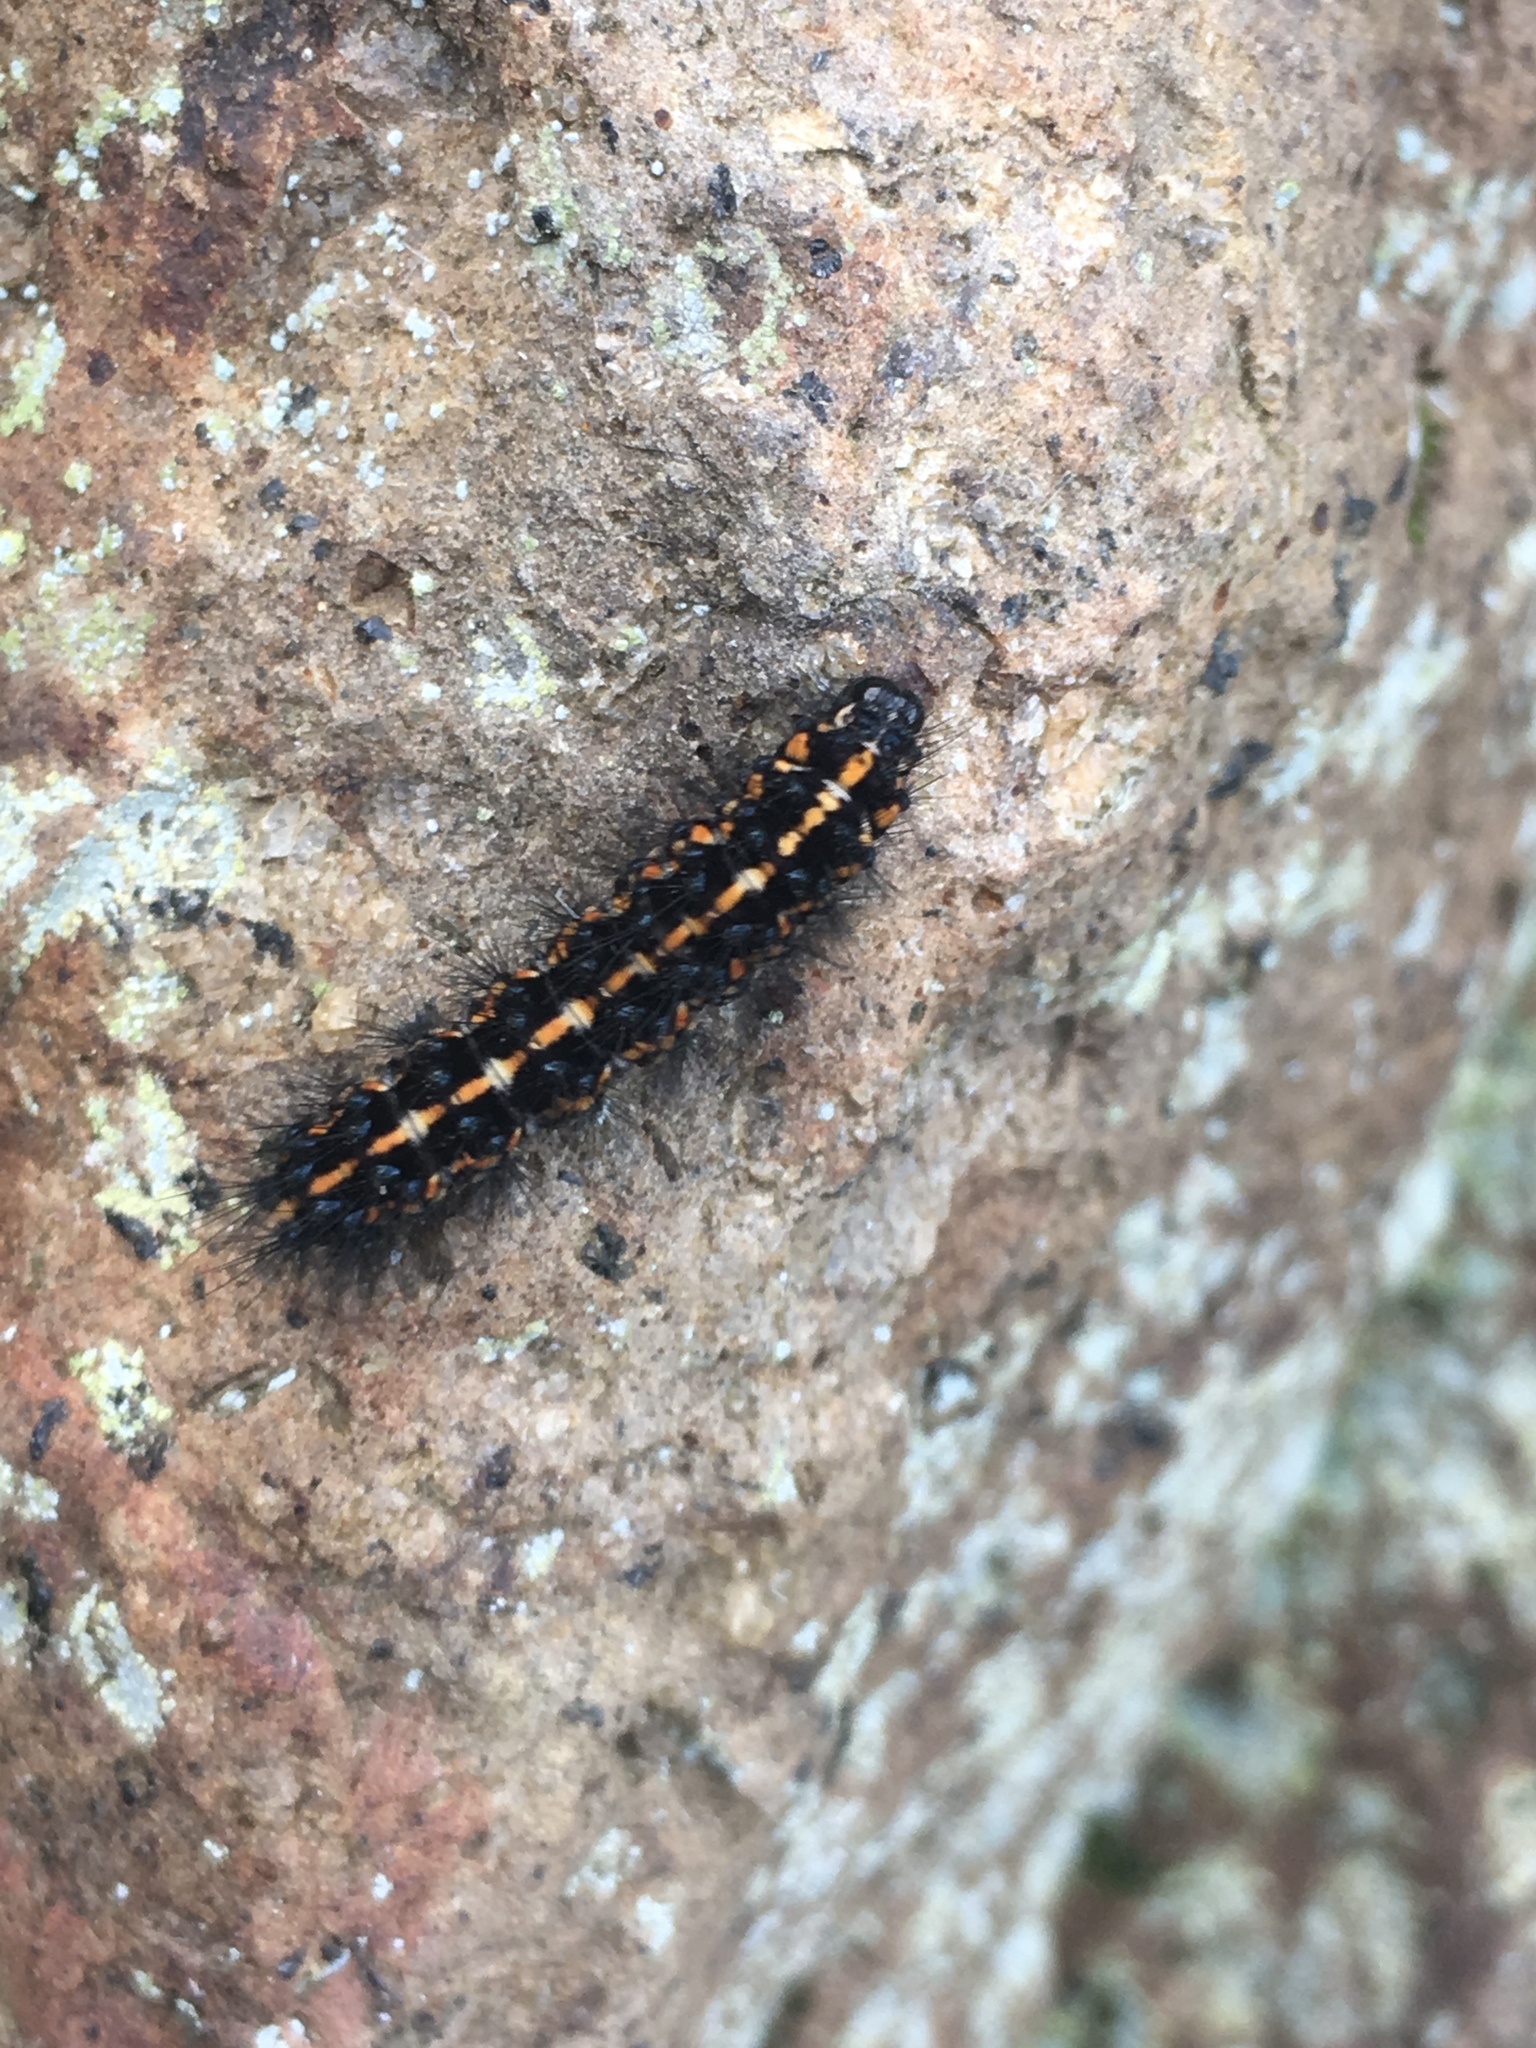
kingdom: Animalia
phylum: Arthropoda
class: Insecta
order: Lepidoptera
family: Erebidae
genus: Nyctemera
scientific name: Nyctemera annulatum
